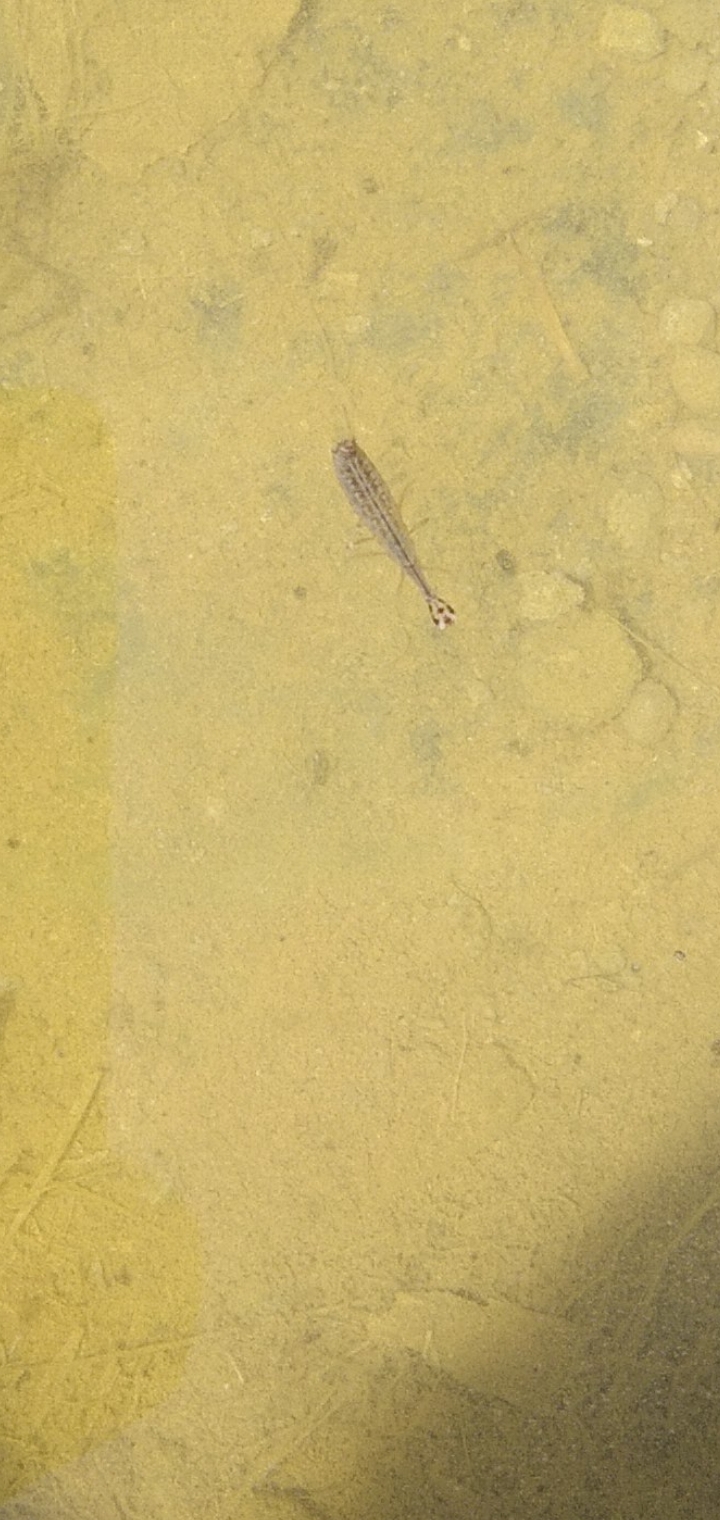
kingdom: Animalia
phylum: Arthropoda
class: Insecta
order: Coleoptera
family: Dytiscidae
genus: Acilius
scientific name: Acilius sulcatus
